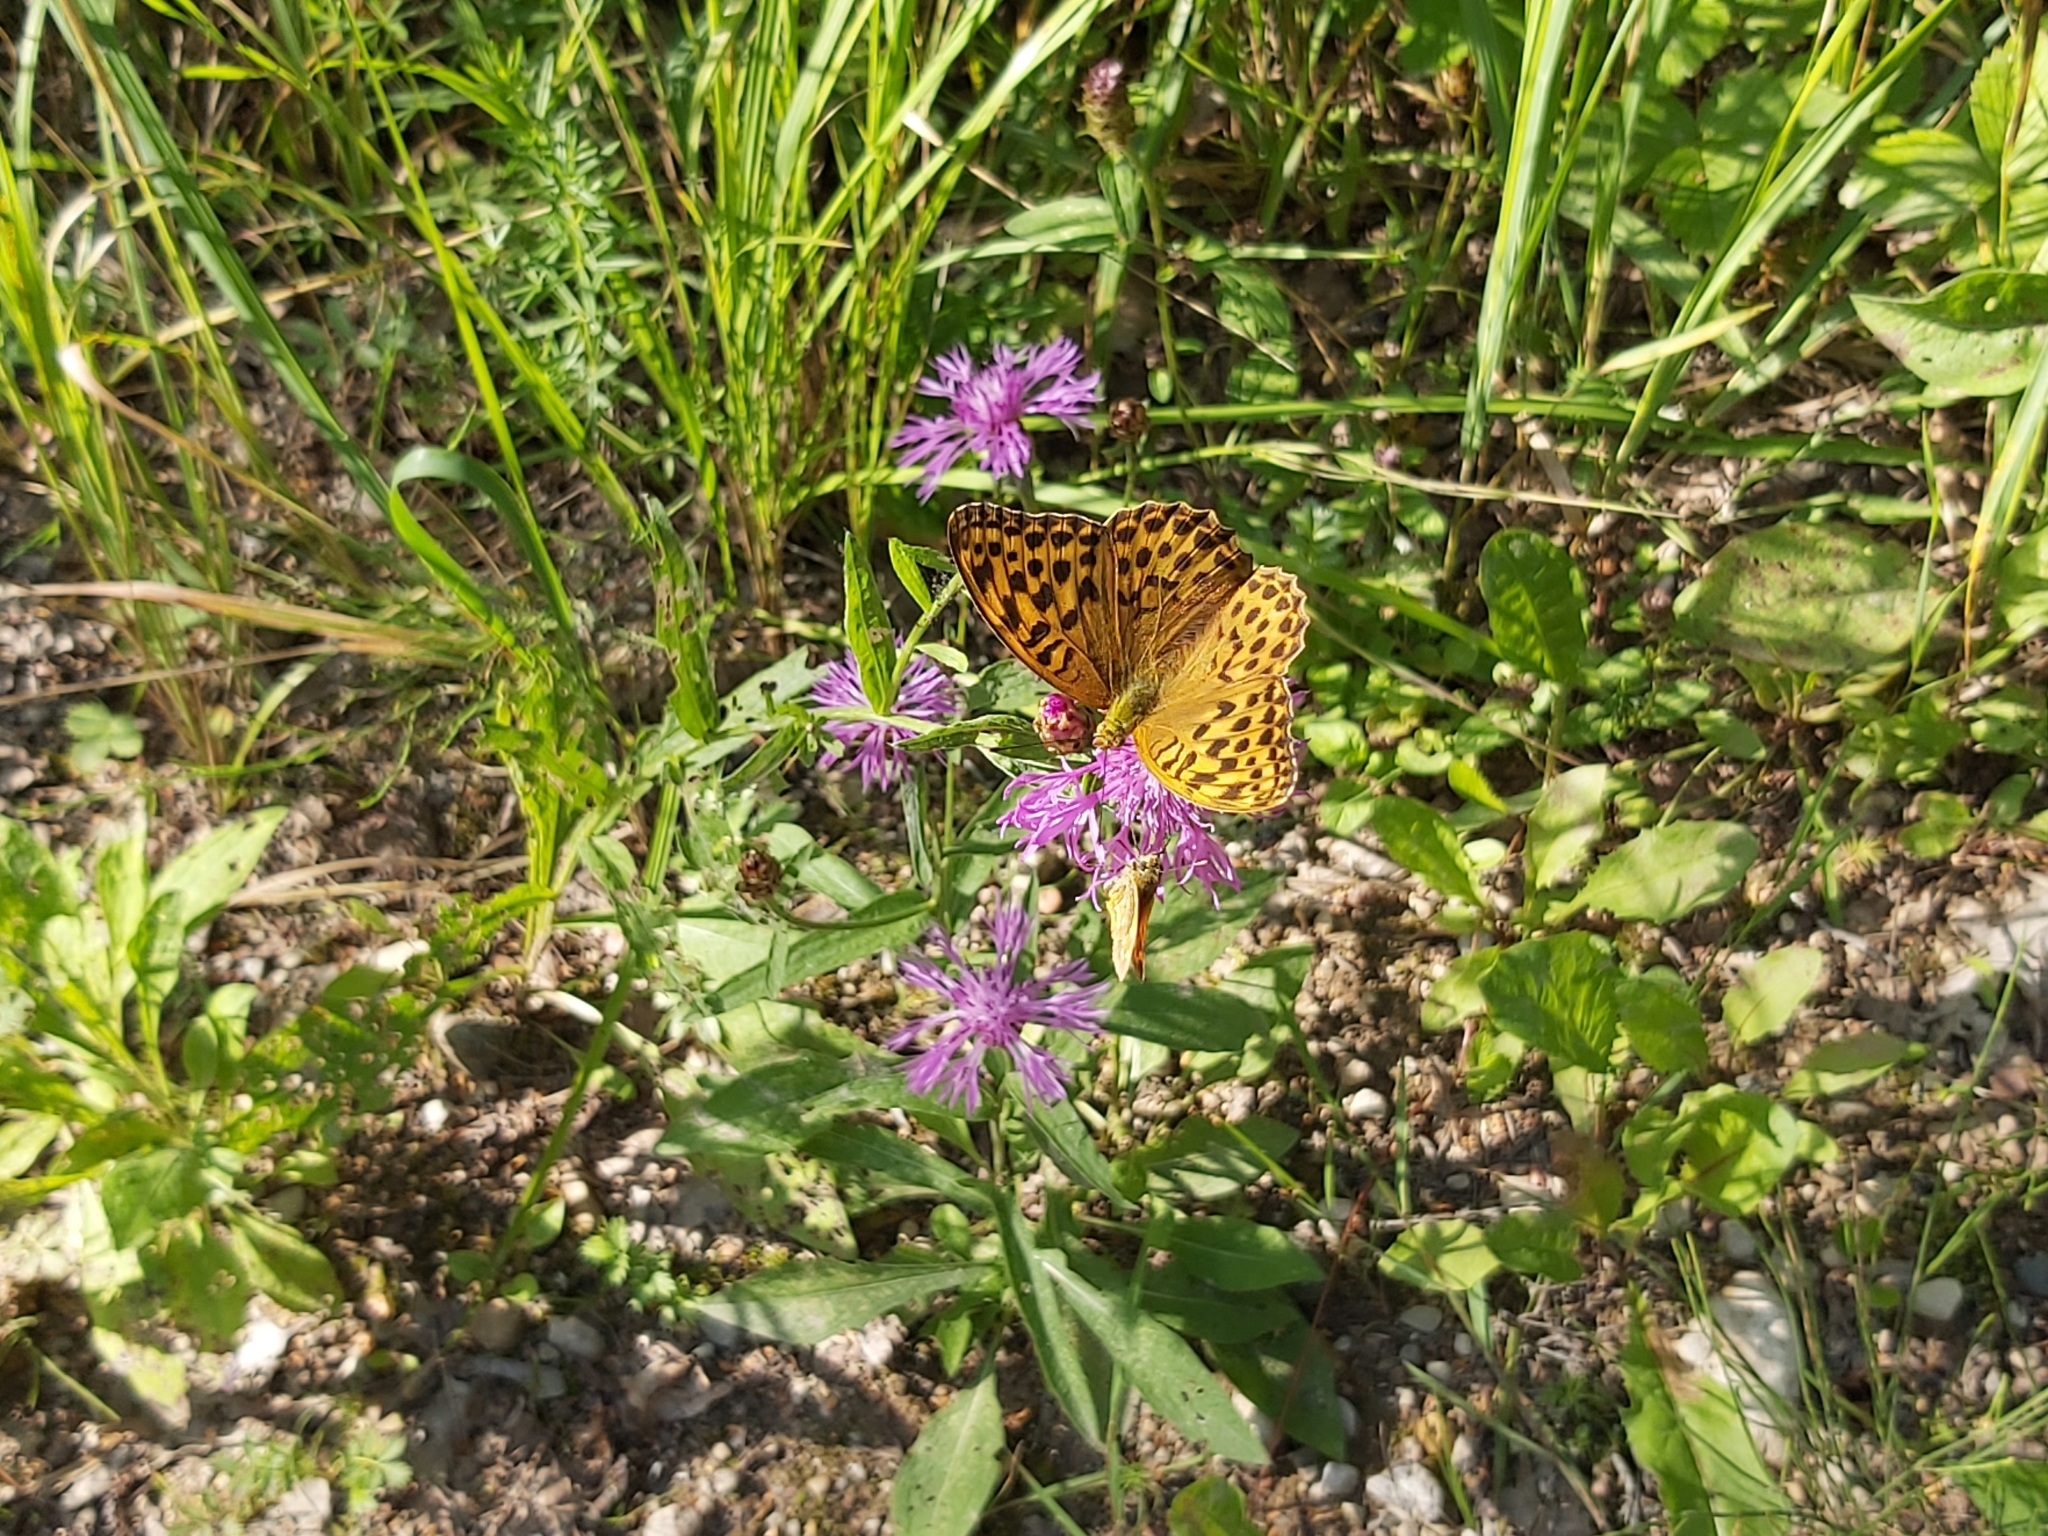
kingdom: Animalia
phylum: Arthropoda
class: Insecta
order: Lepidoptera
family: Nymphalidae
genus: Argynnis
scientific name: Argynnis paphia
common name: Silver-washed fritillary
